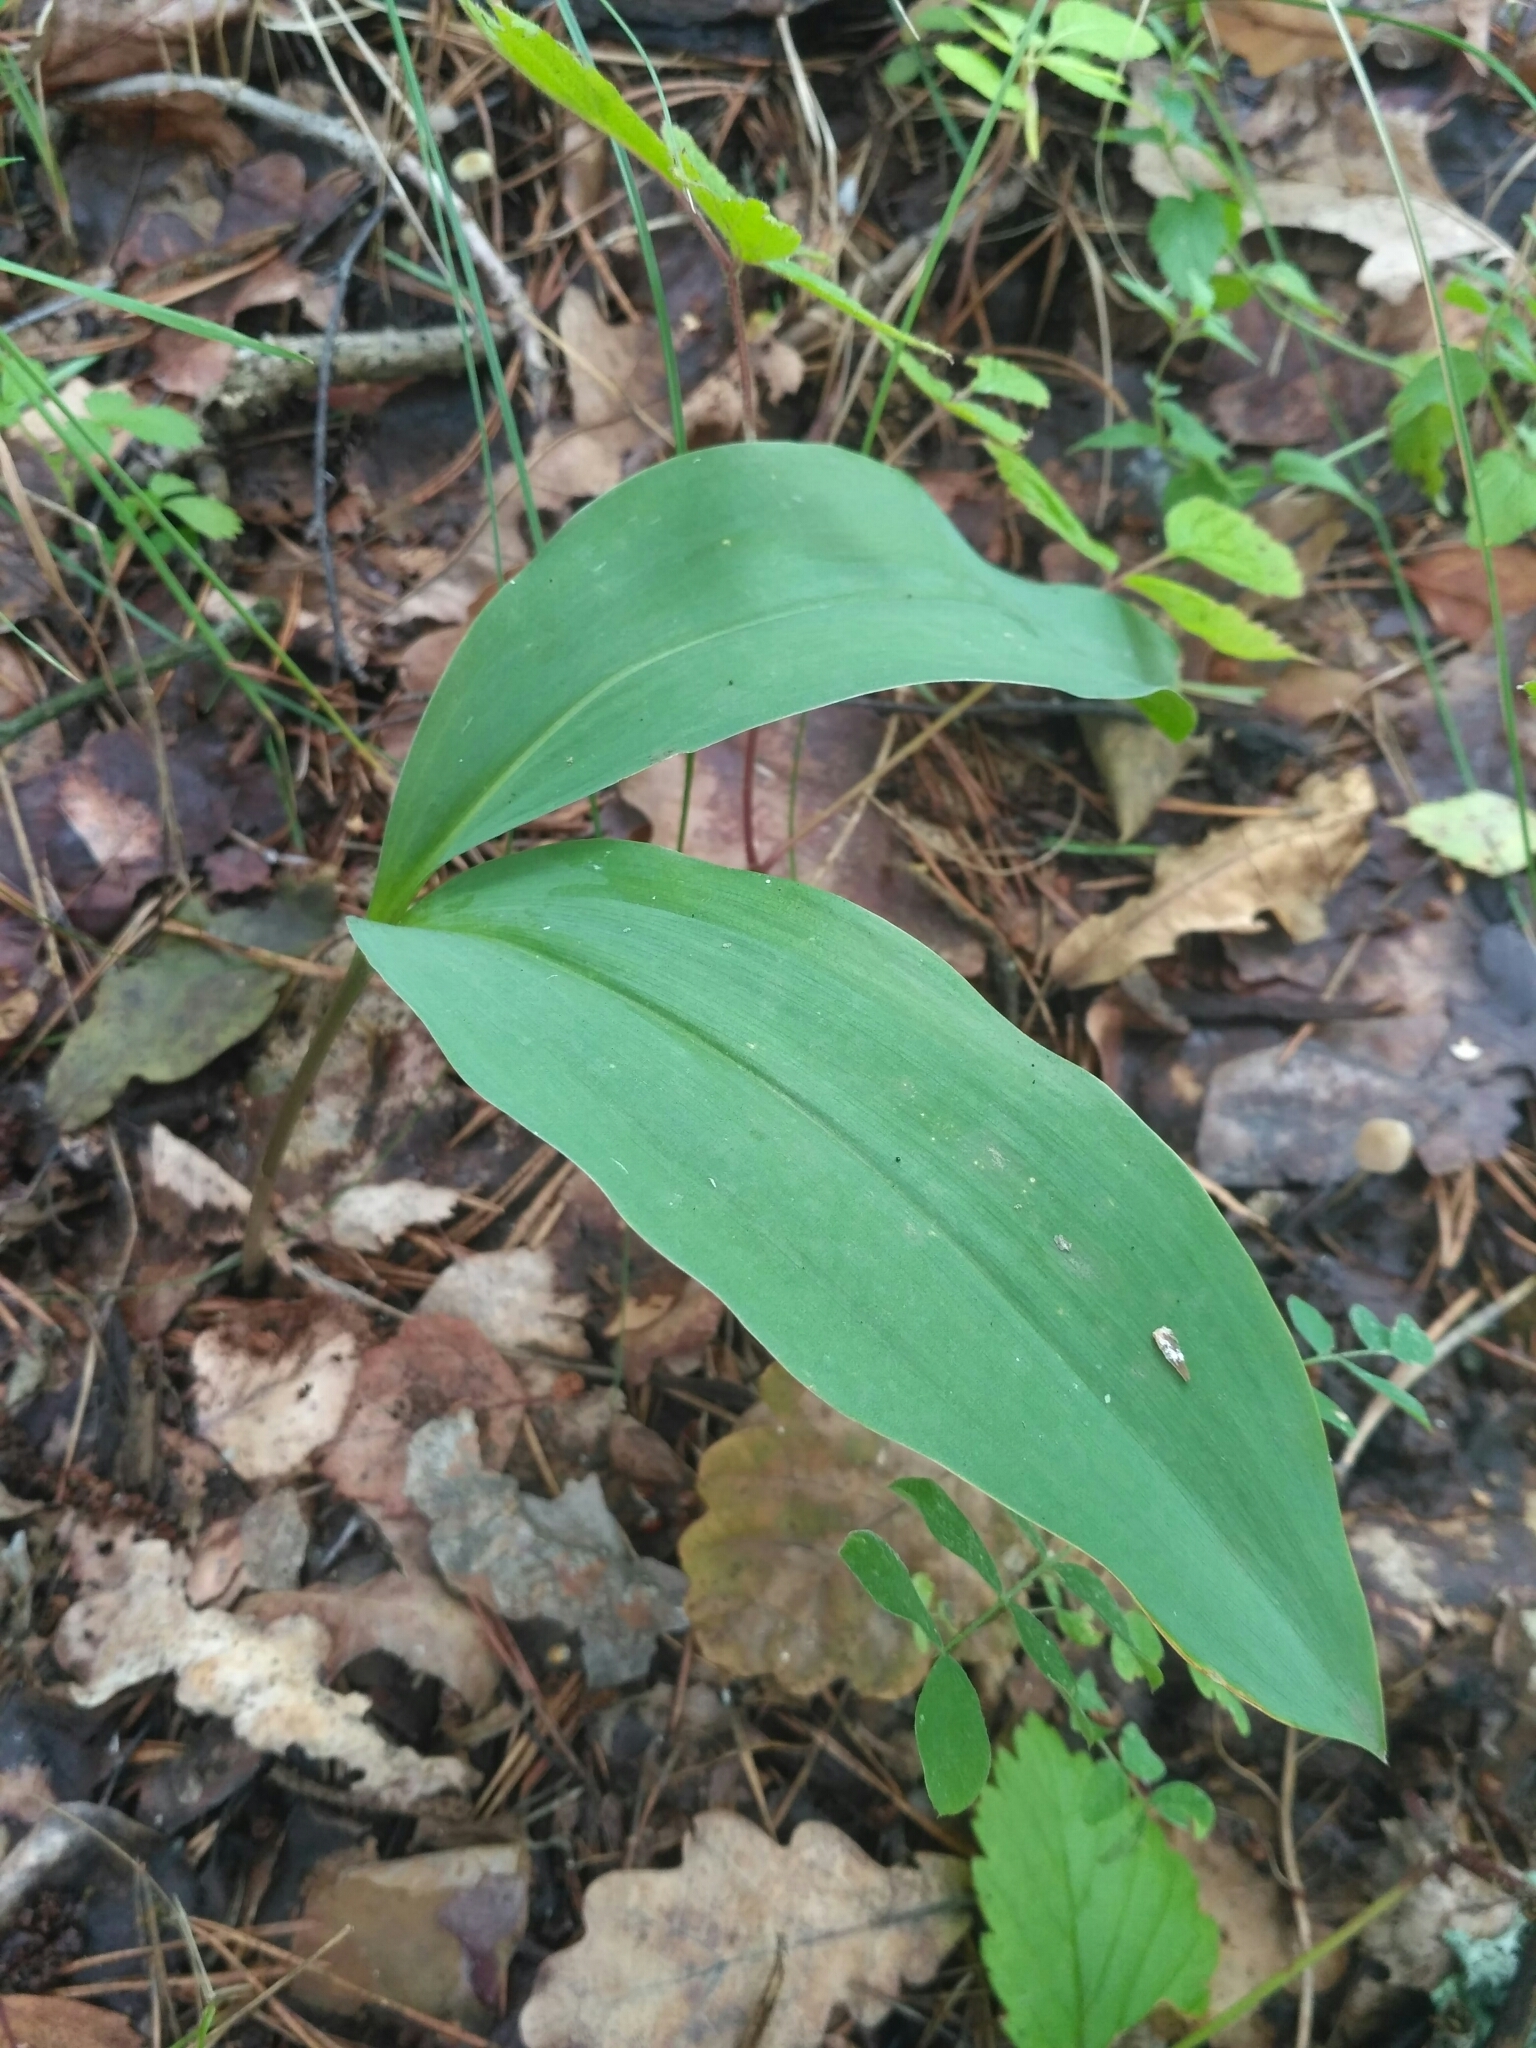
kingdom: Plantae
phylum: Tracheophyta
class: Liliopsida
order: Asparagales
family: Asparagaceae
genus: Convallaria
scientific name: Convallaria majalis
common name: Lily-of-the-valley
